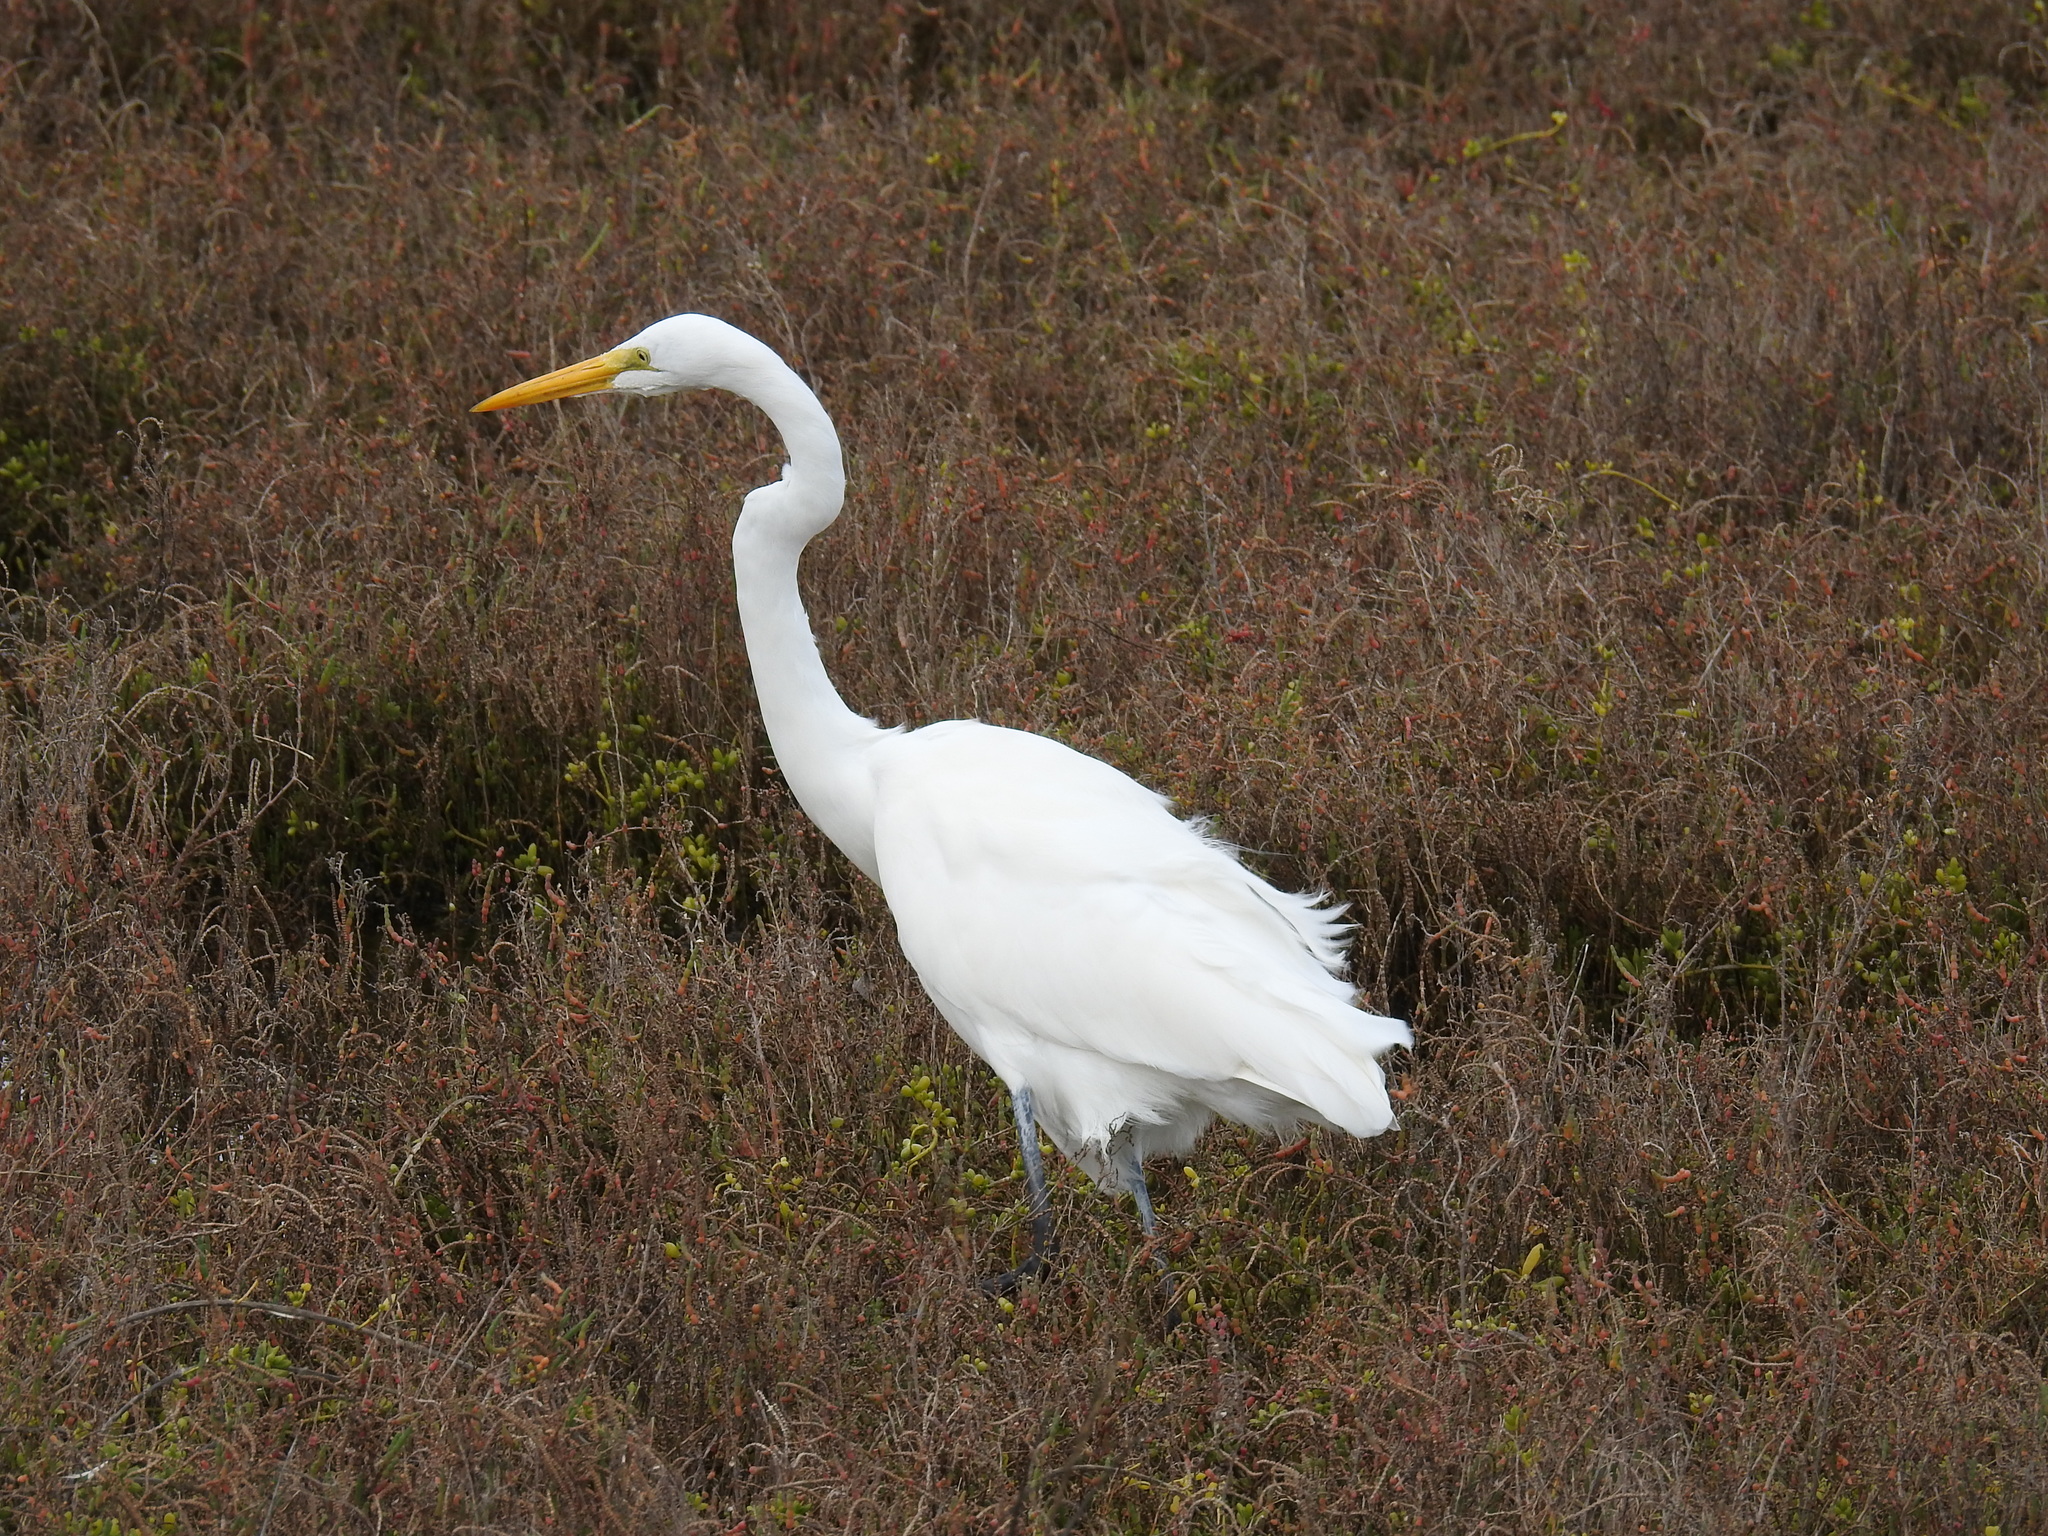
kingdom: Animalia
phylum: Chordata
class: Aves
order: Pelecaniformes
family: Ardeidae
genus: Ardea
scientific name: Ardea alba
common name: Great egret
